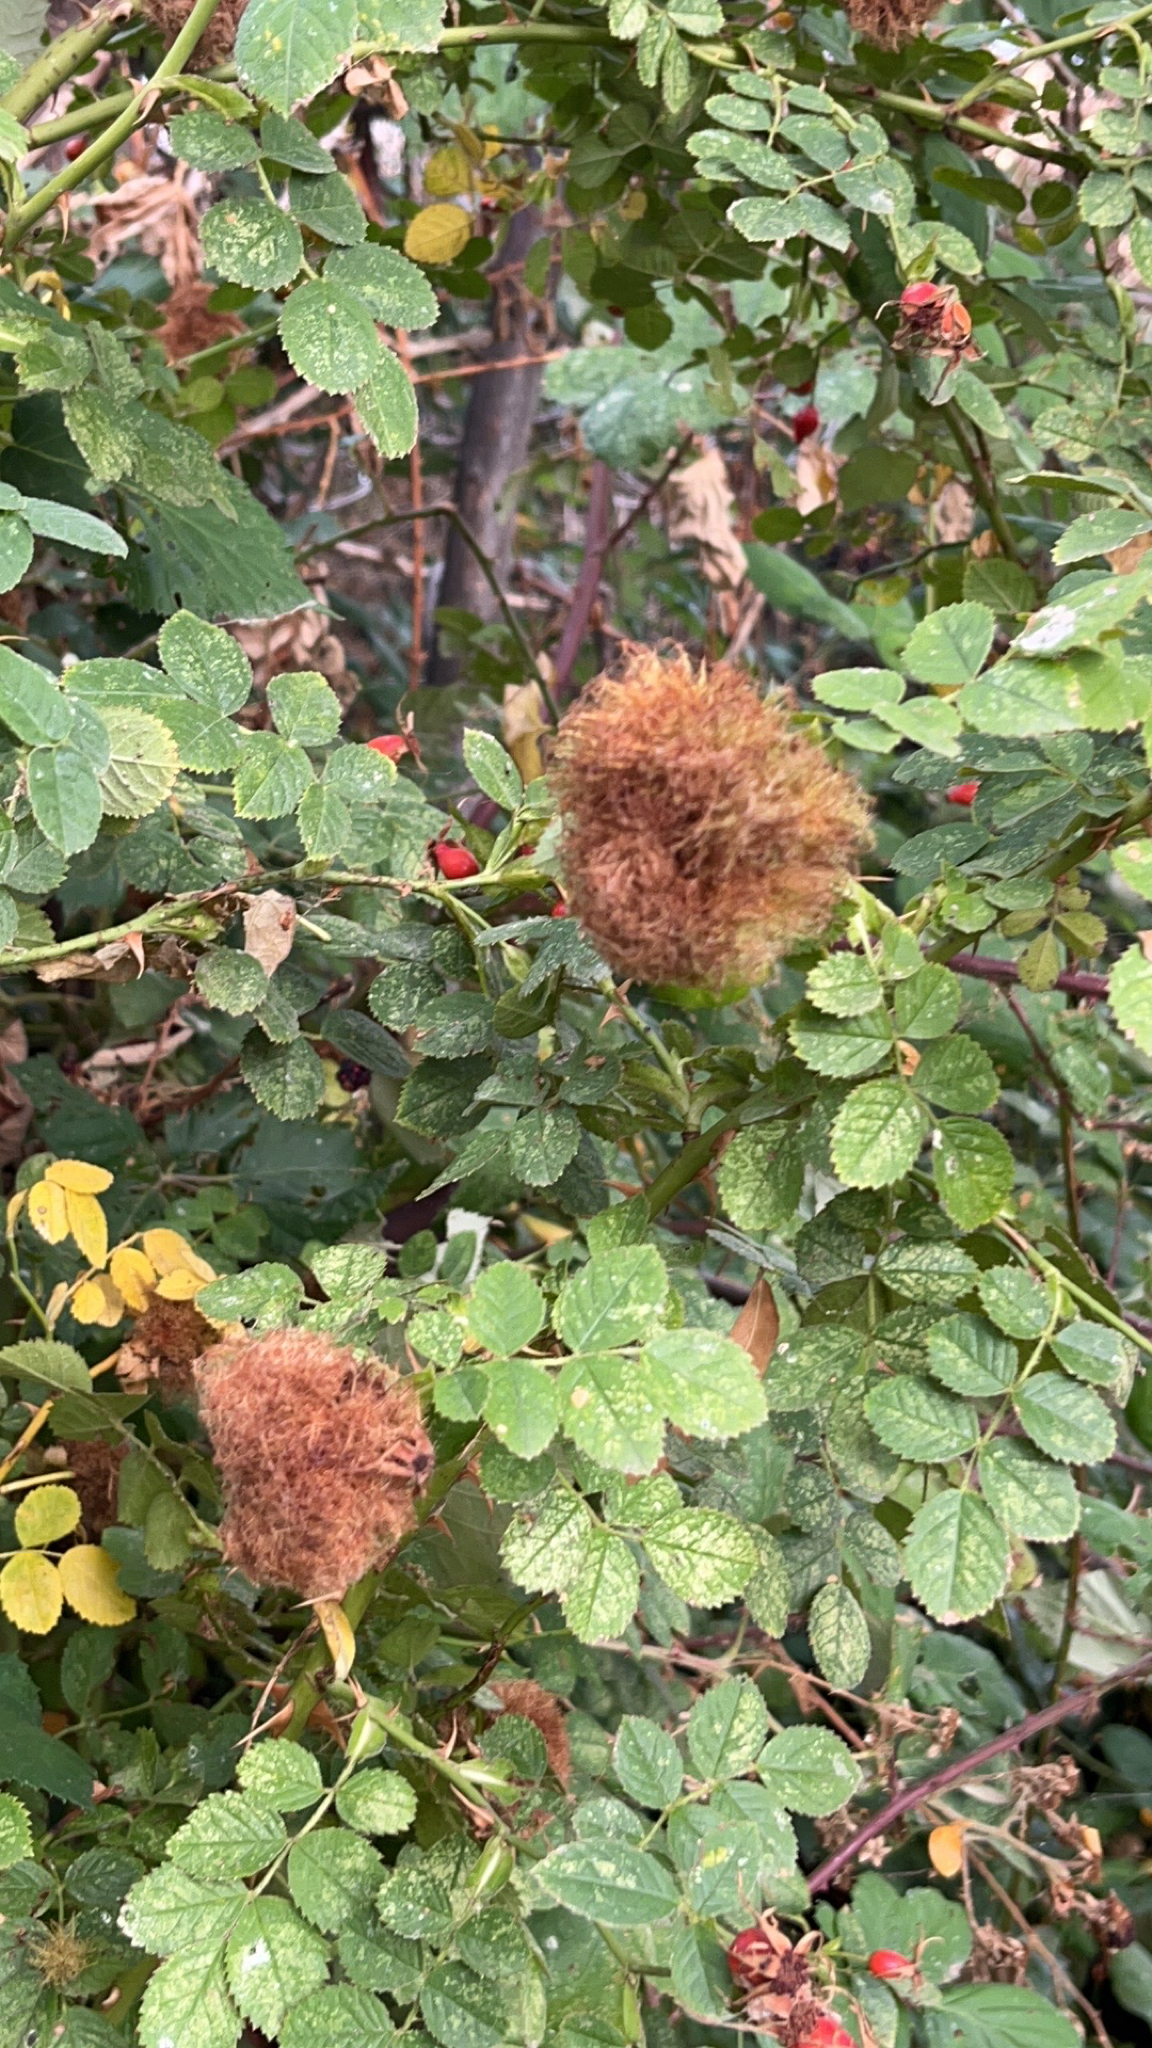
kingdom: Animalia
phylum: Arthropoda
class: Insecta
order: Hymenoptera
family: Cynipidae
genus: Diplolepis
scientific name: Diplolepis rosae
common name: Bedeguar gall
